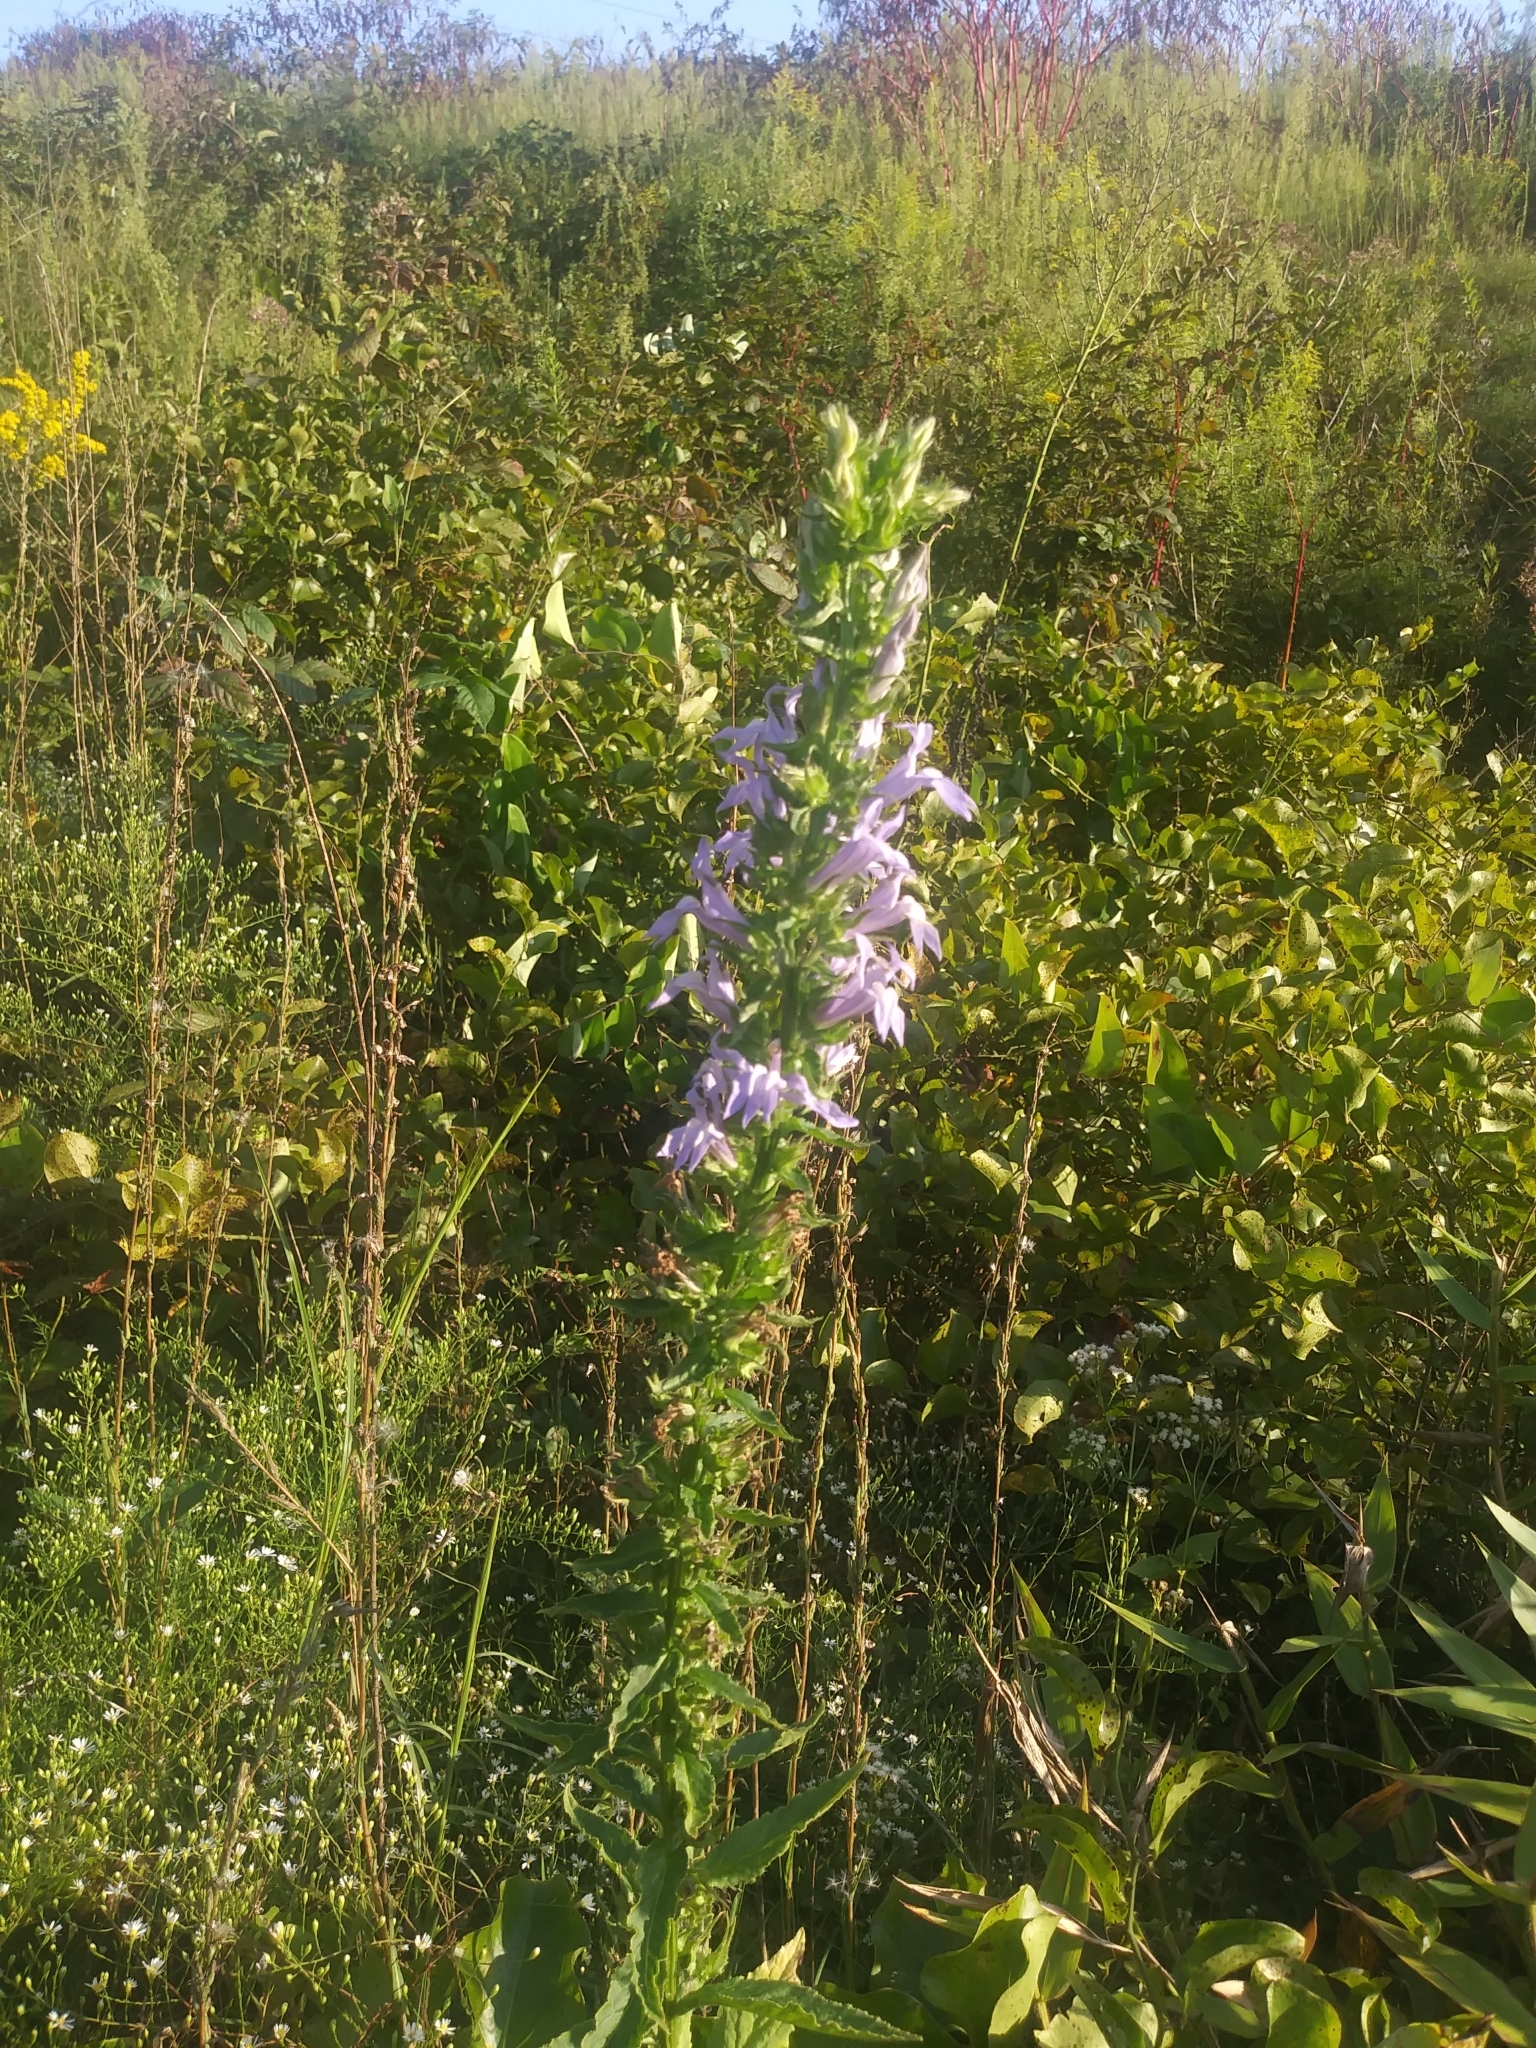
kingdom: Plantae
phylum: Tracheophyta
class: Magnoliopsida
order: Asterales
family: Campanulaceae
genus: Lobelia
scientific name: Lobelia siphilitica
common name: Great lobelia
